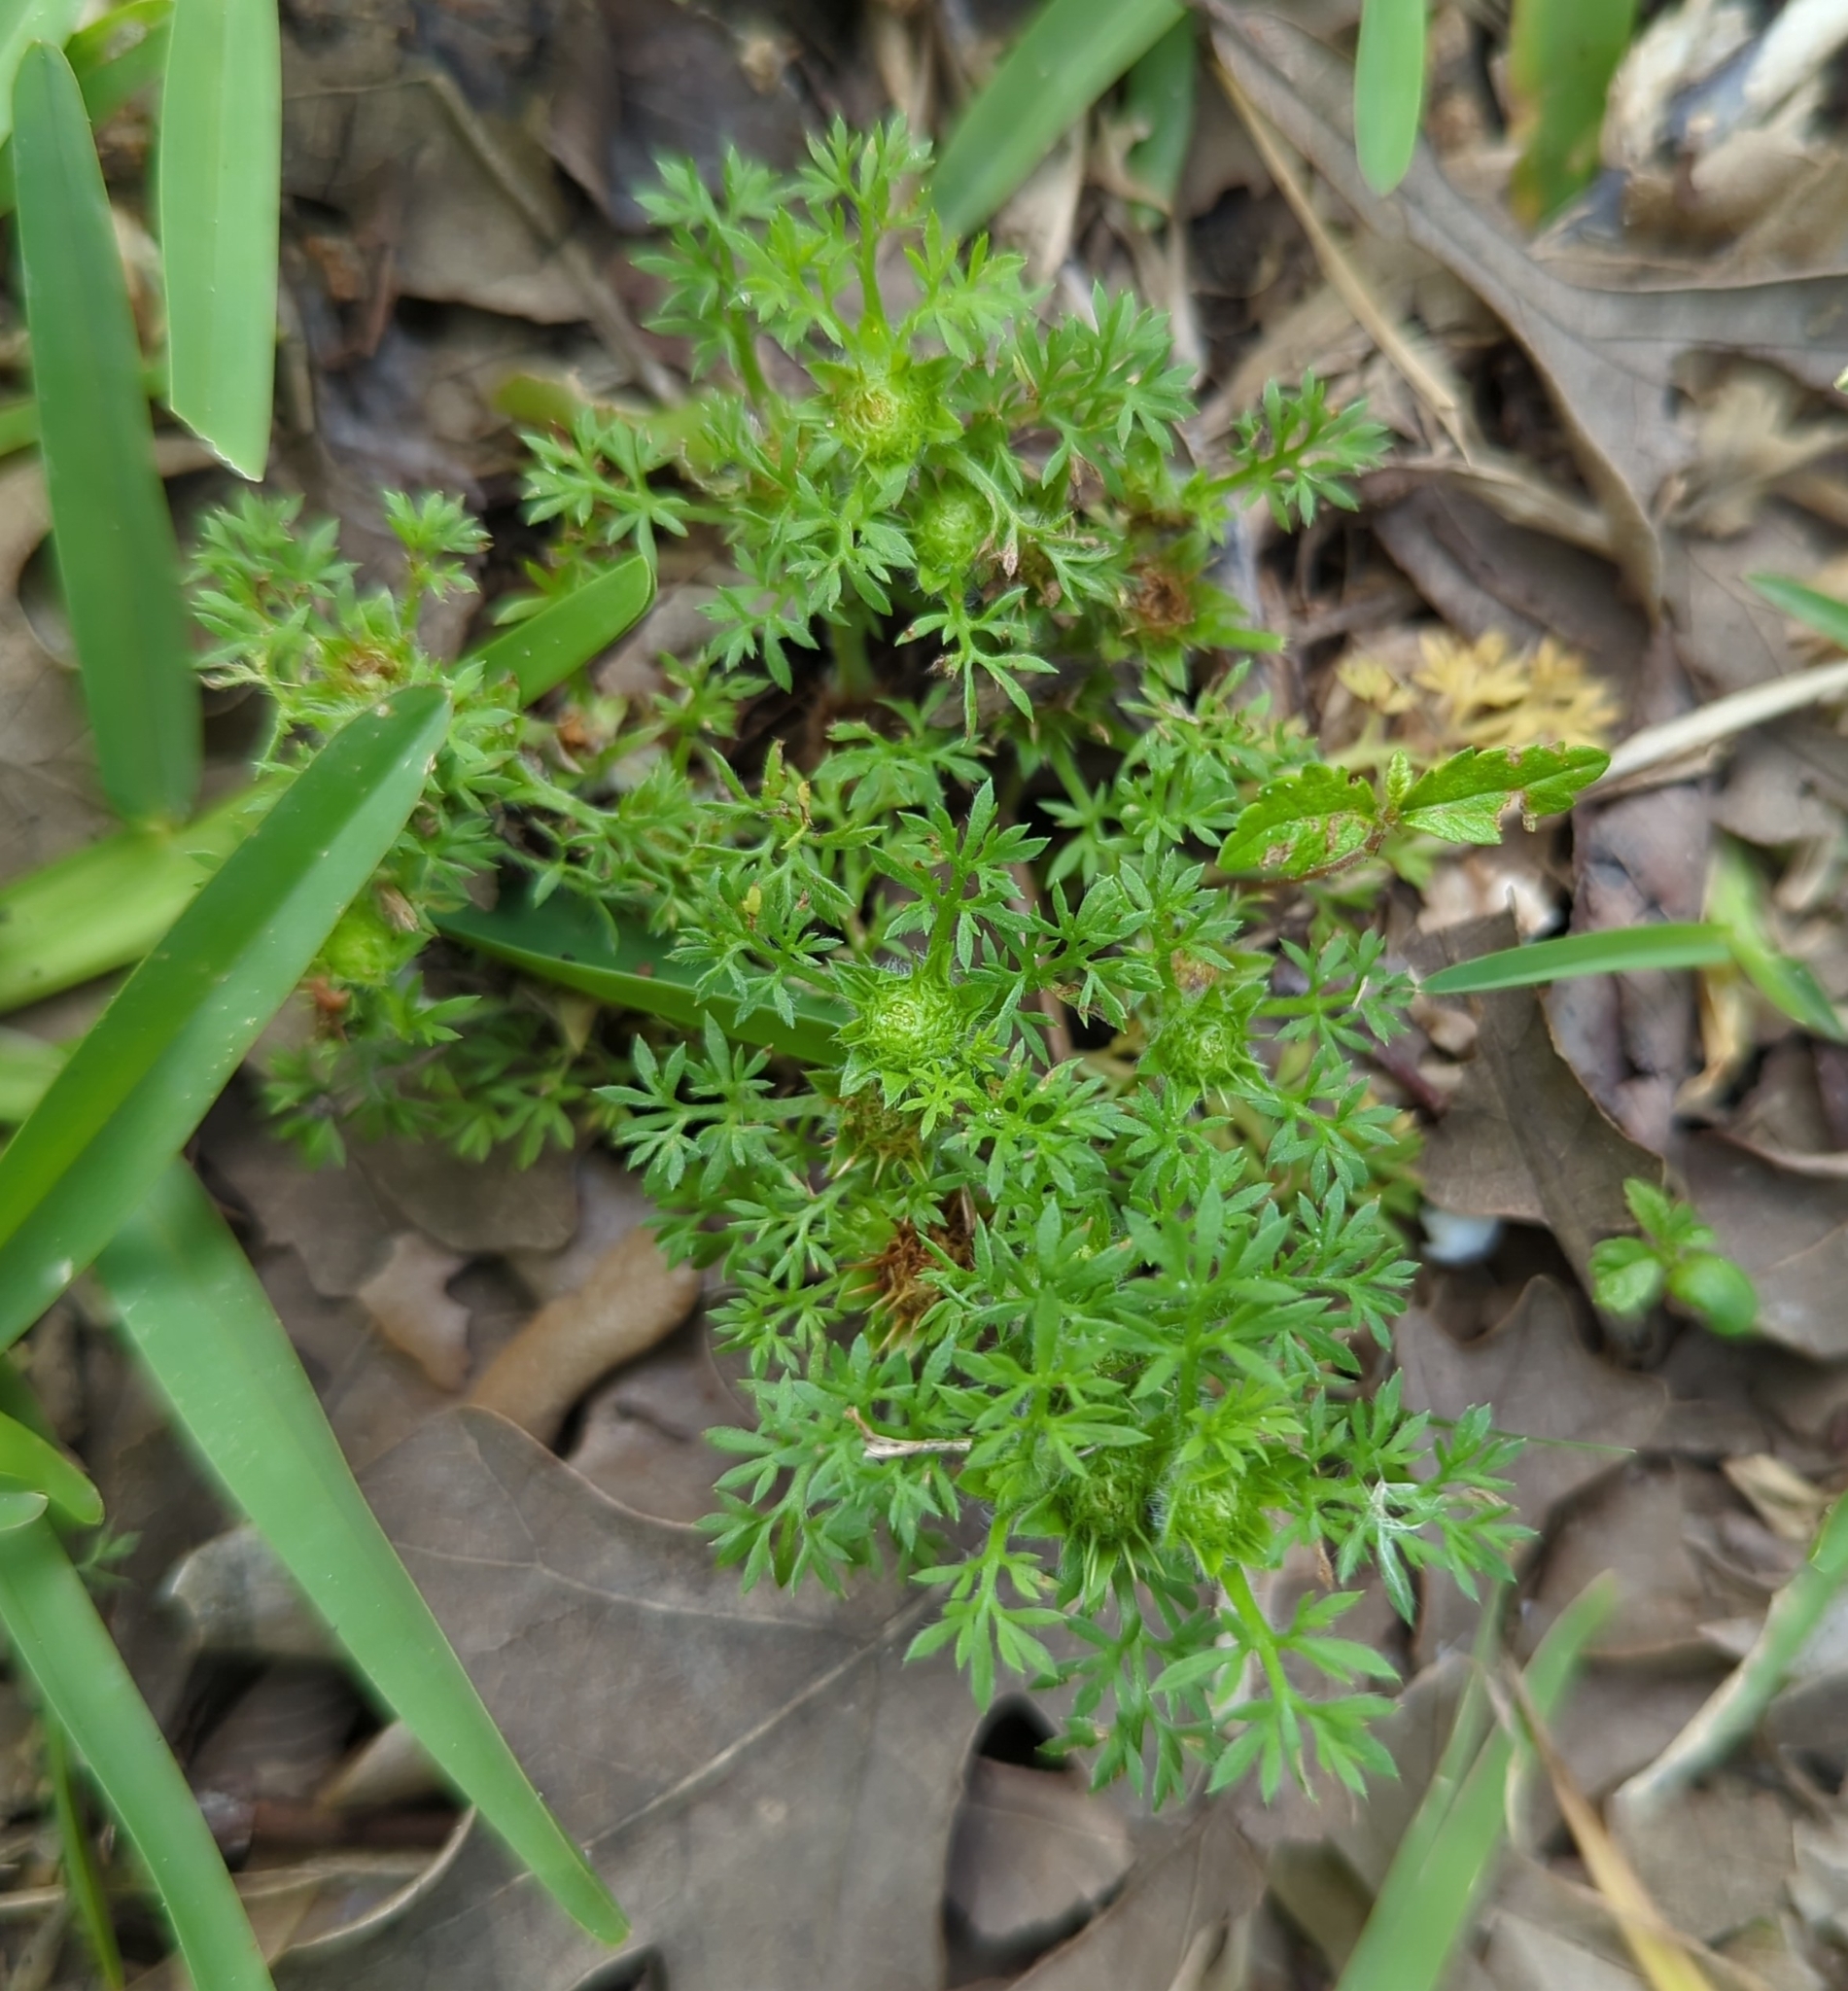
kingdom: Plantae
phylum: Tracheophyta
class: Magnoliopsida
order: Asterales
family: Asteraceae
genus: Soliva
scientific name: Soliva sessilis
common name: Field burrweed
